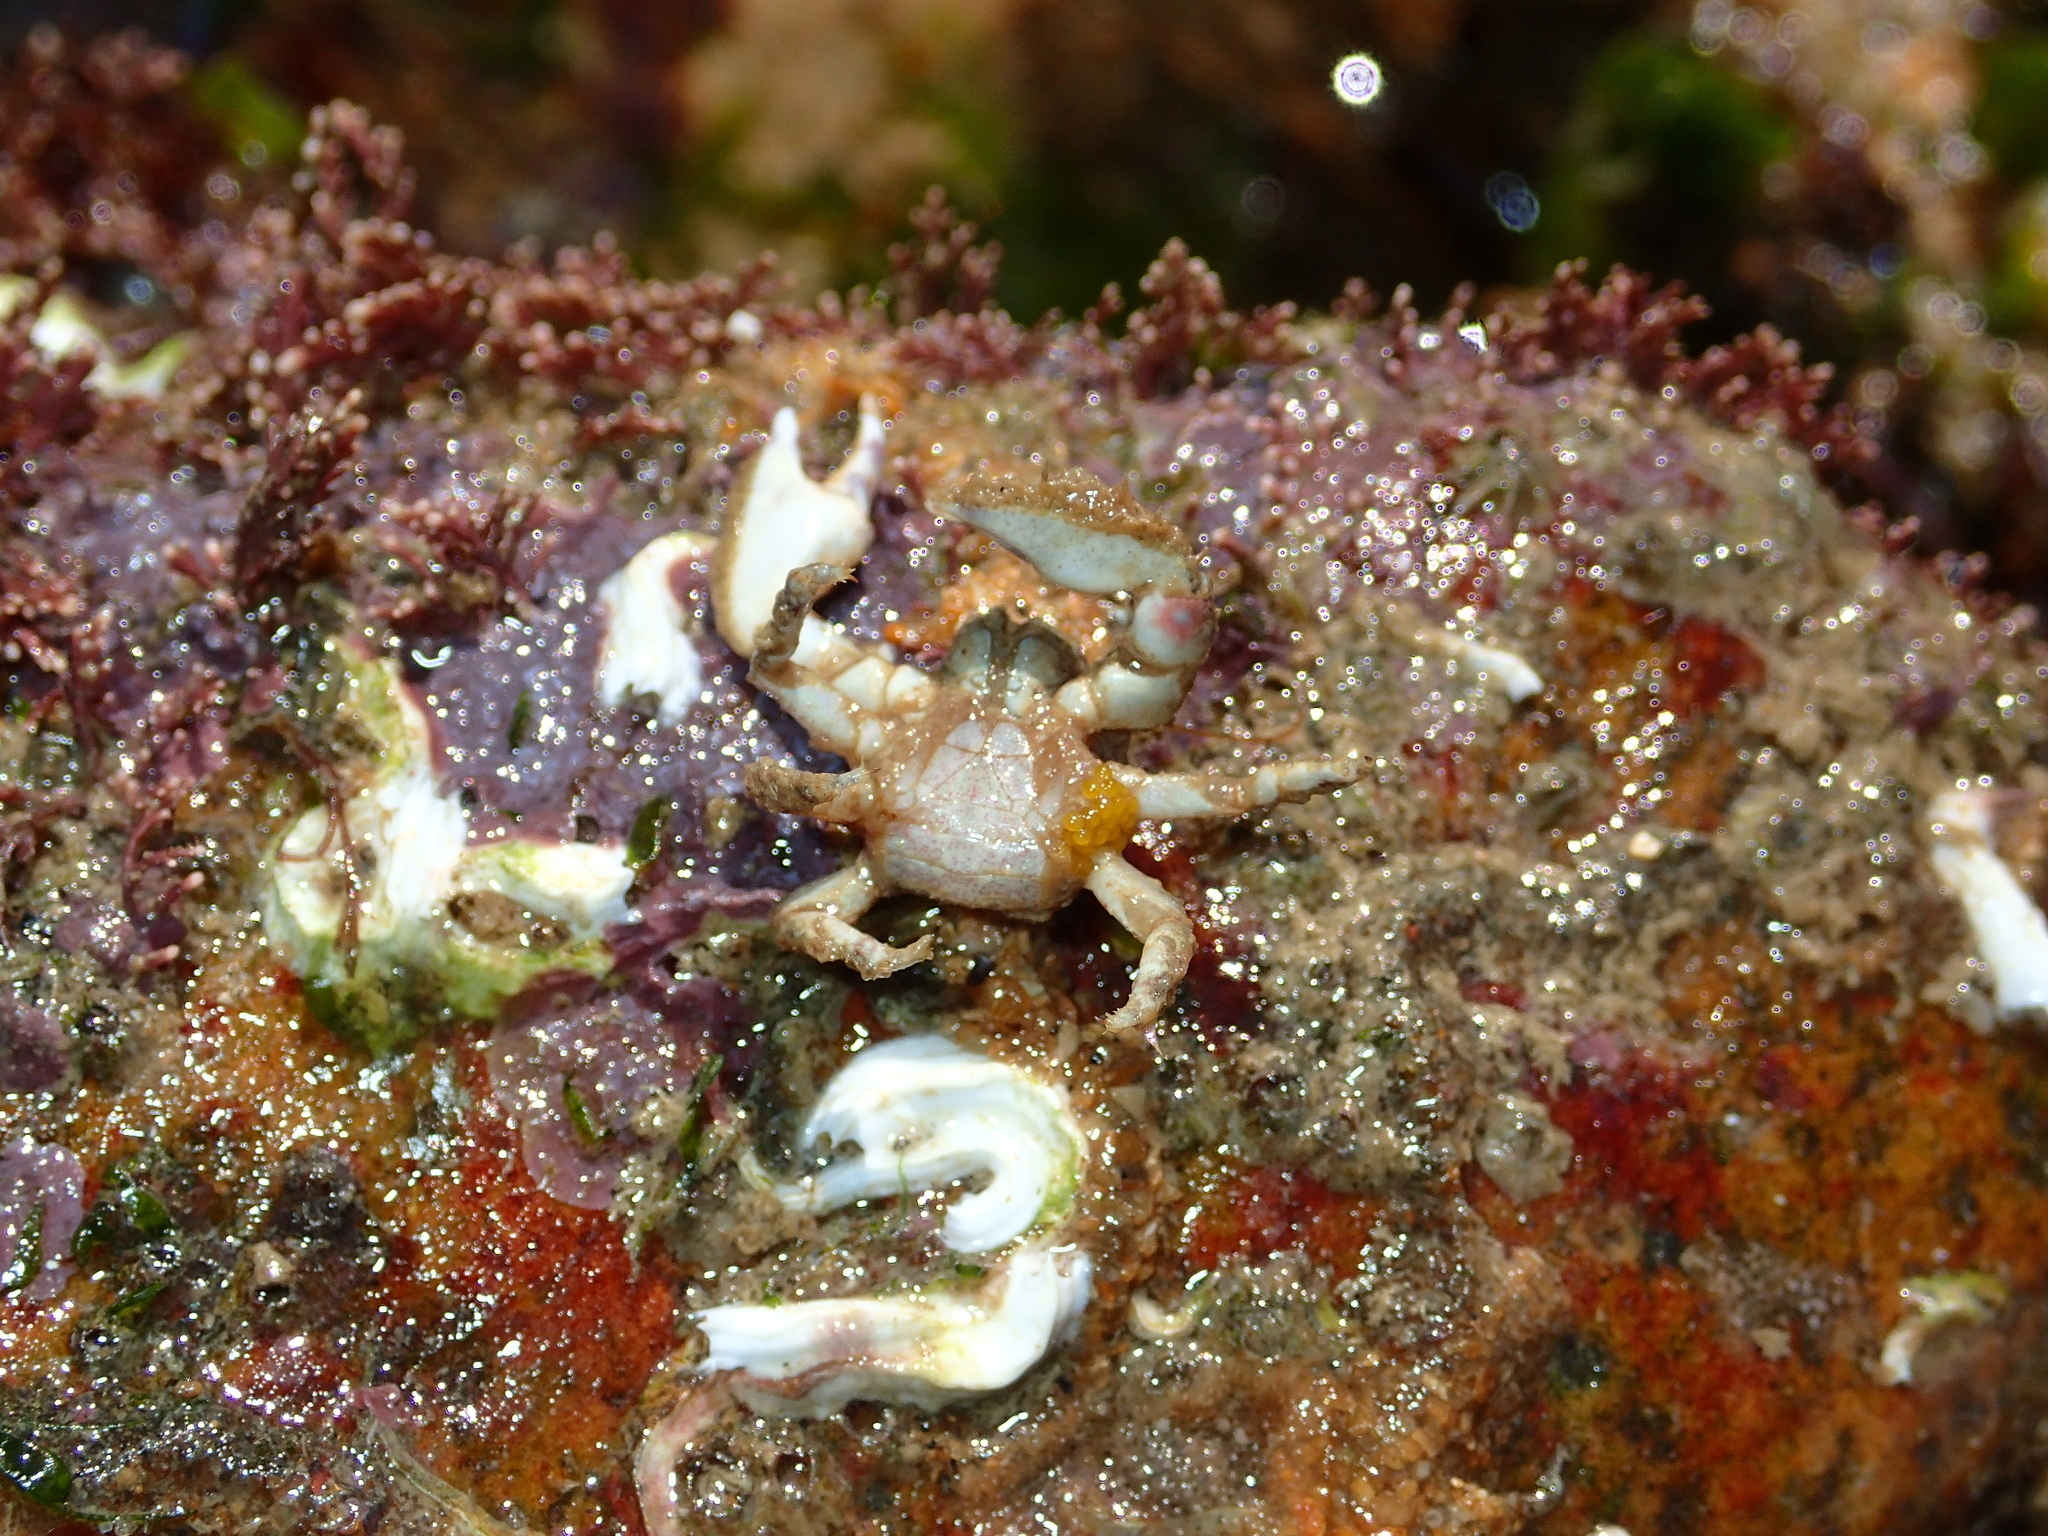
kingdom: Animalia
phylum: Arthropoda
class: Malacostraca
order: Decapoda
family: Porcellanidae
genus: Porcellana
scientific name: Porcellana platycheles
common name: Porcelain crab
